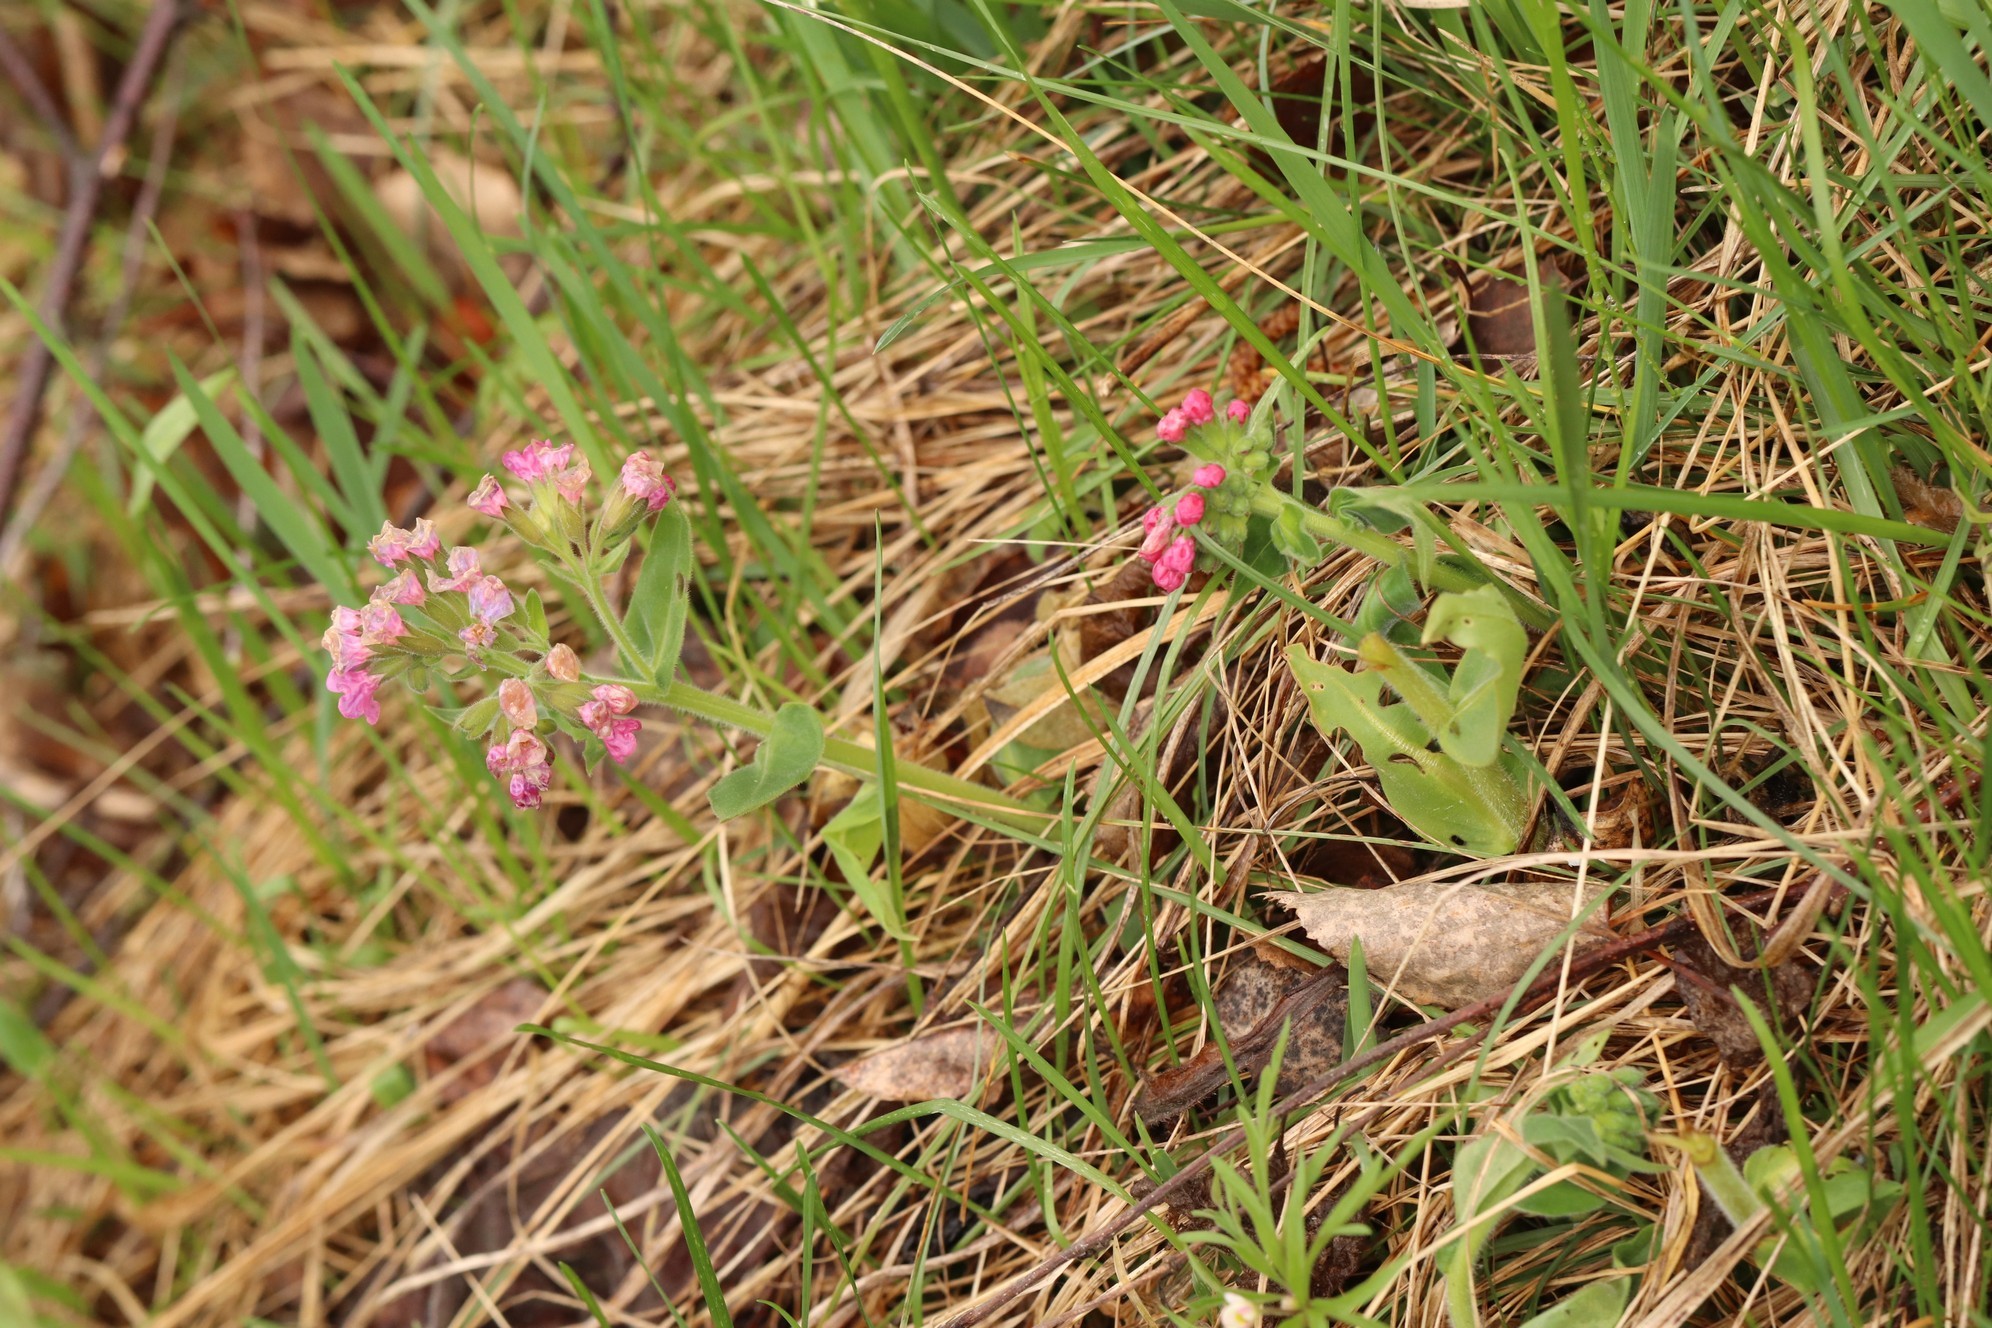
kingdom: Plantae
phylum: Tracheophyta
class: Magnoliopsida
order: Boraginales
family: Boraginaceae
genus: Pulmonaria
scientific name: Pulmonaria mollis
